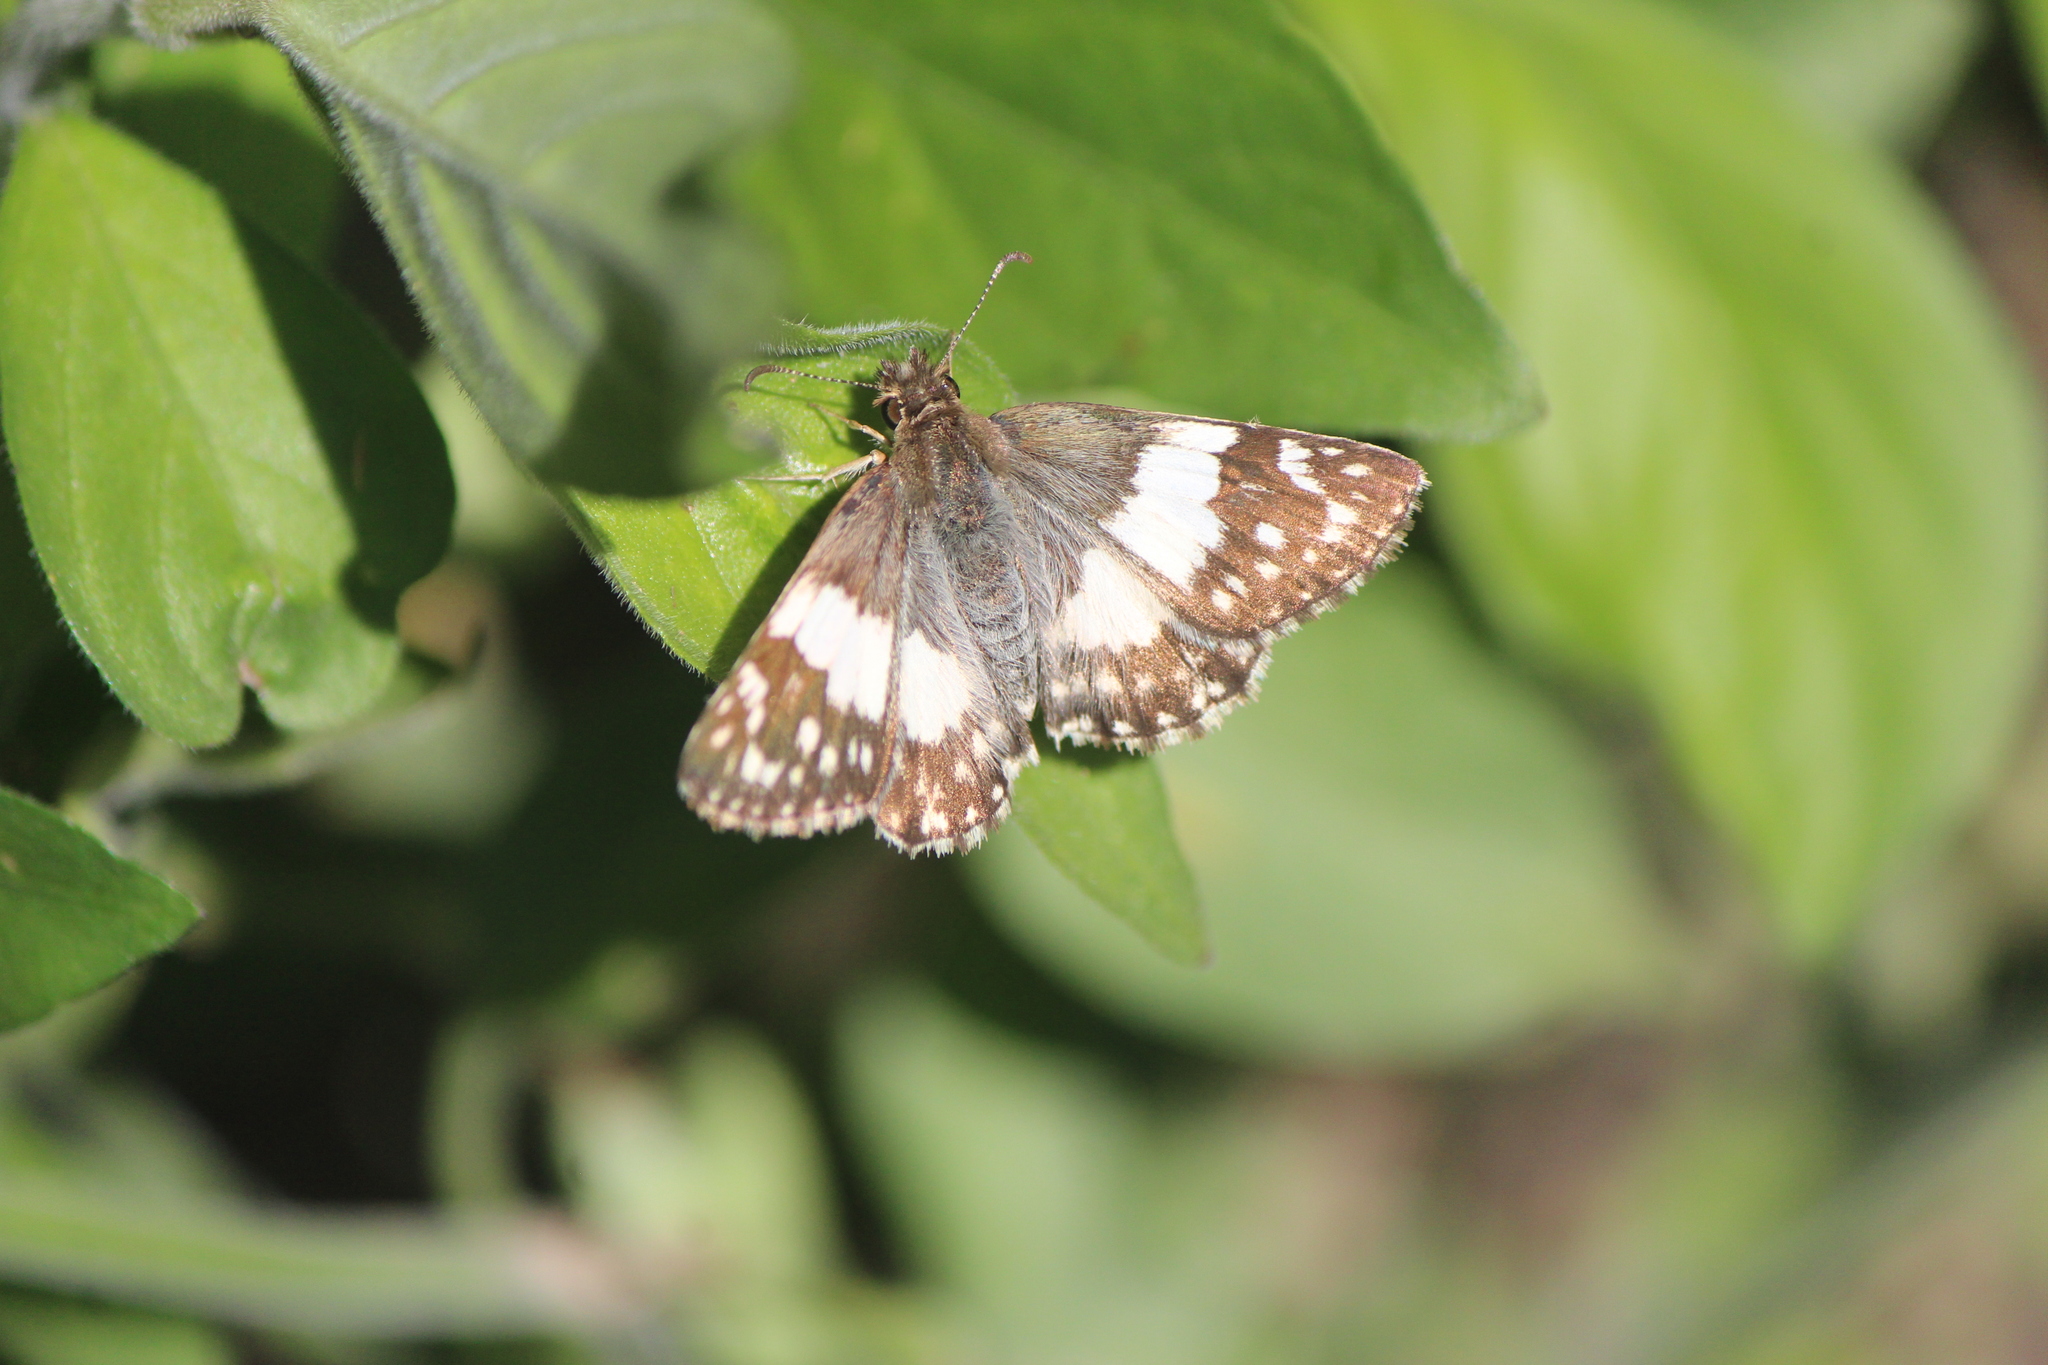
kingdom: Animalia
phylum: Arthropoda
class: Insecta
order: Lepidoptera
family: Hesperiidae
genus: Heliopyrgus
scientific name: Heliopyrgus domicella
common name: Erichson's white skipper
